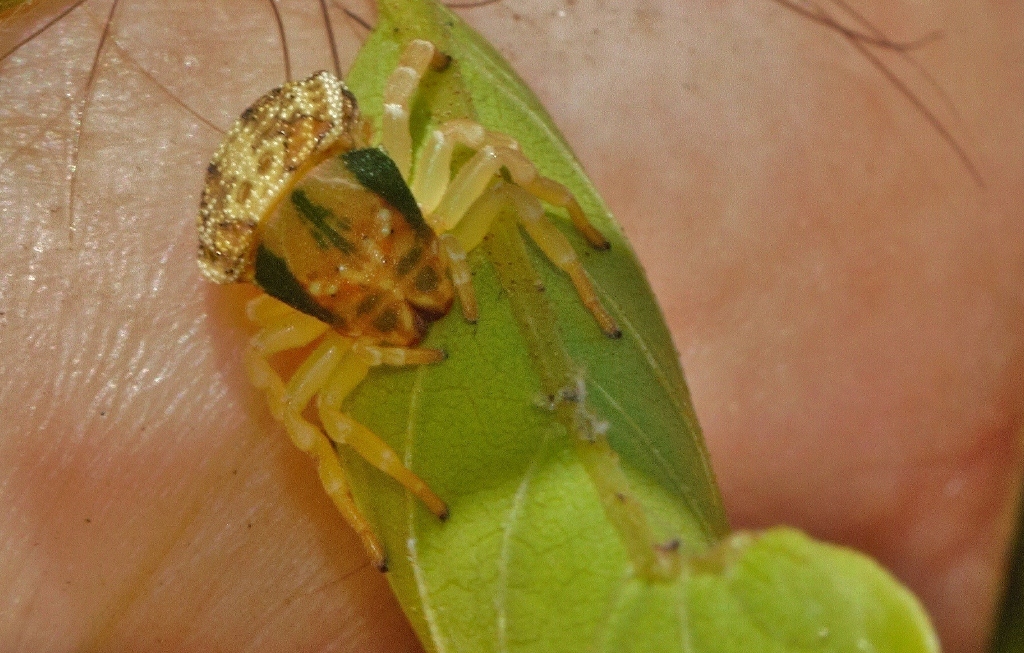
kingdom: Animalia
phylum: Arthropoda
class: Arachnida
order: Araneae
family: Thomisidae
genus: Thomisops
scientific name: Thomisops pupa
